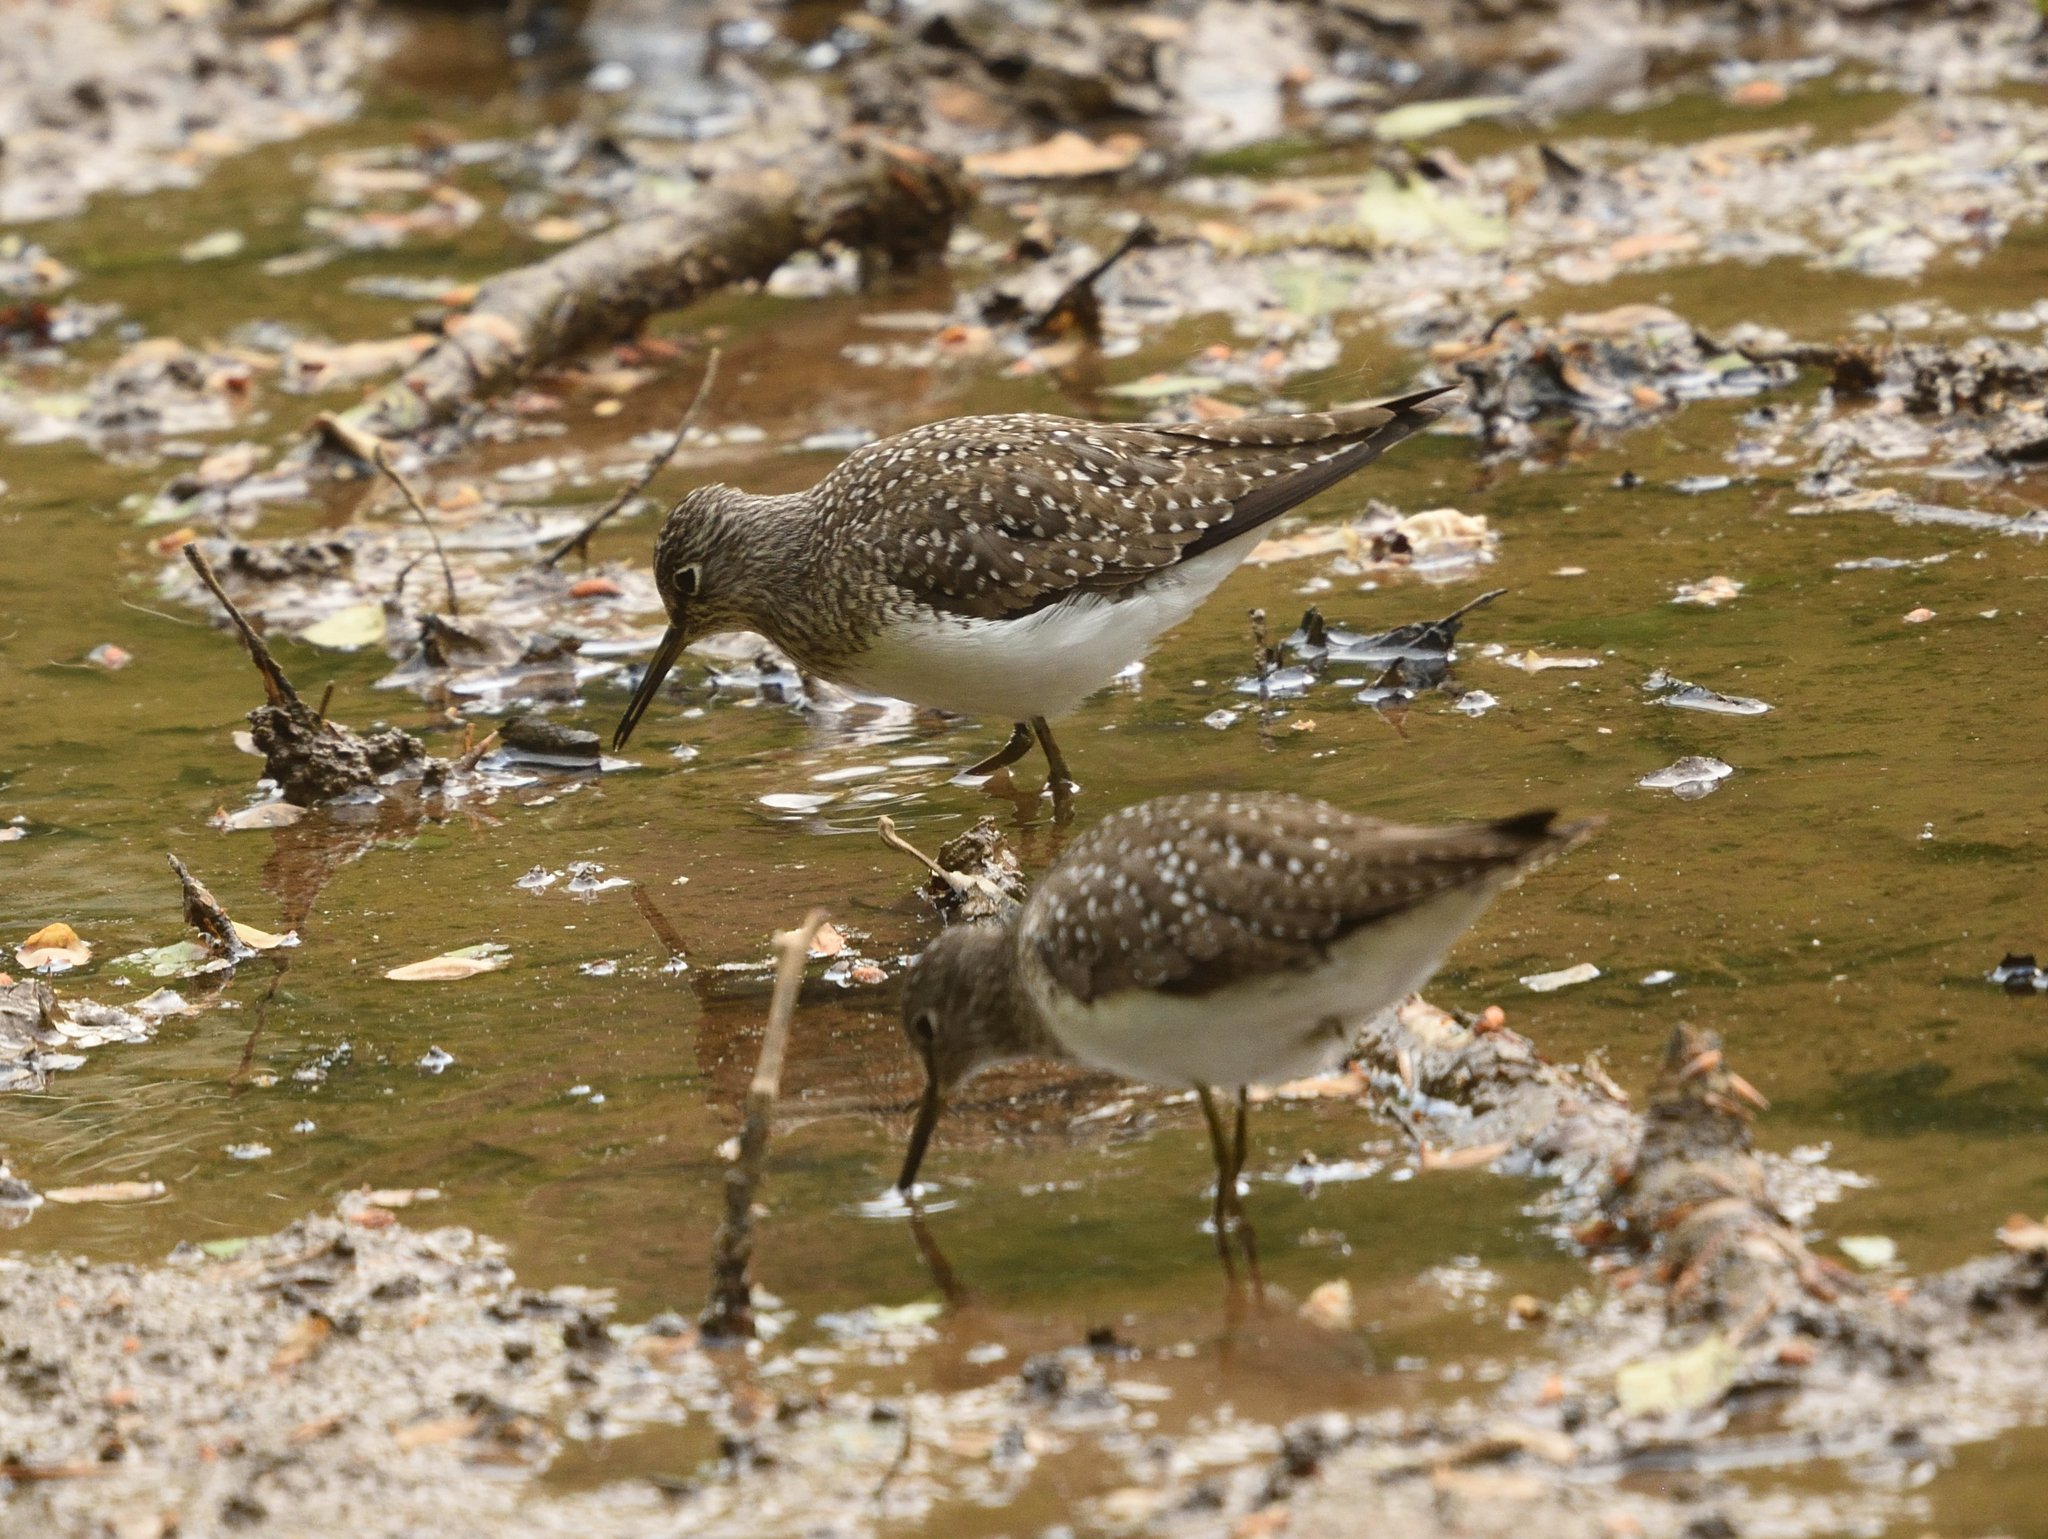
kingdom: Animalia
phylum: Chordata
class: Aves
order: Charadriiformes
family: Scolopacidae
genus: Tringa
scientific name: Tringa solitaria
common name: Solitary sandpiper
